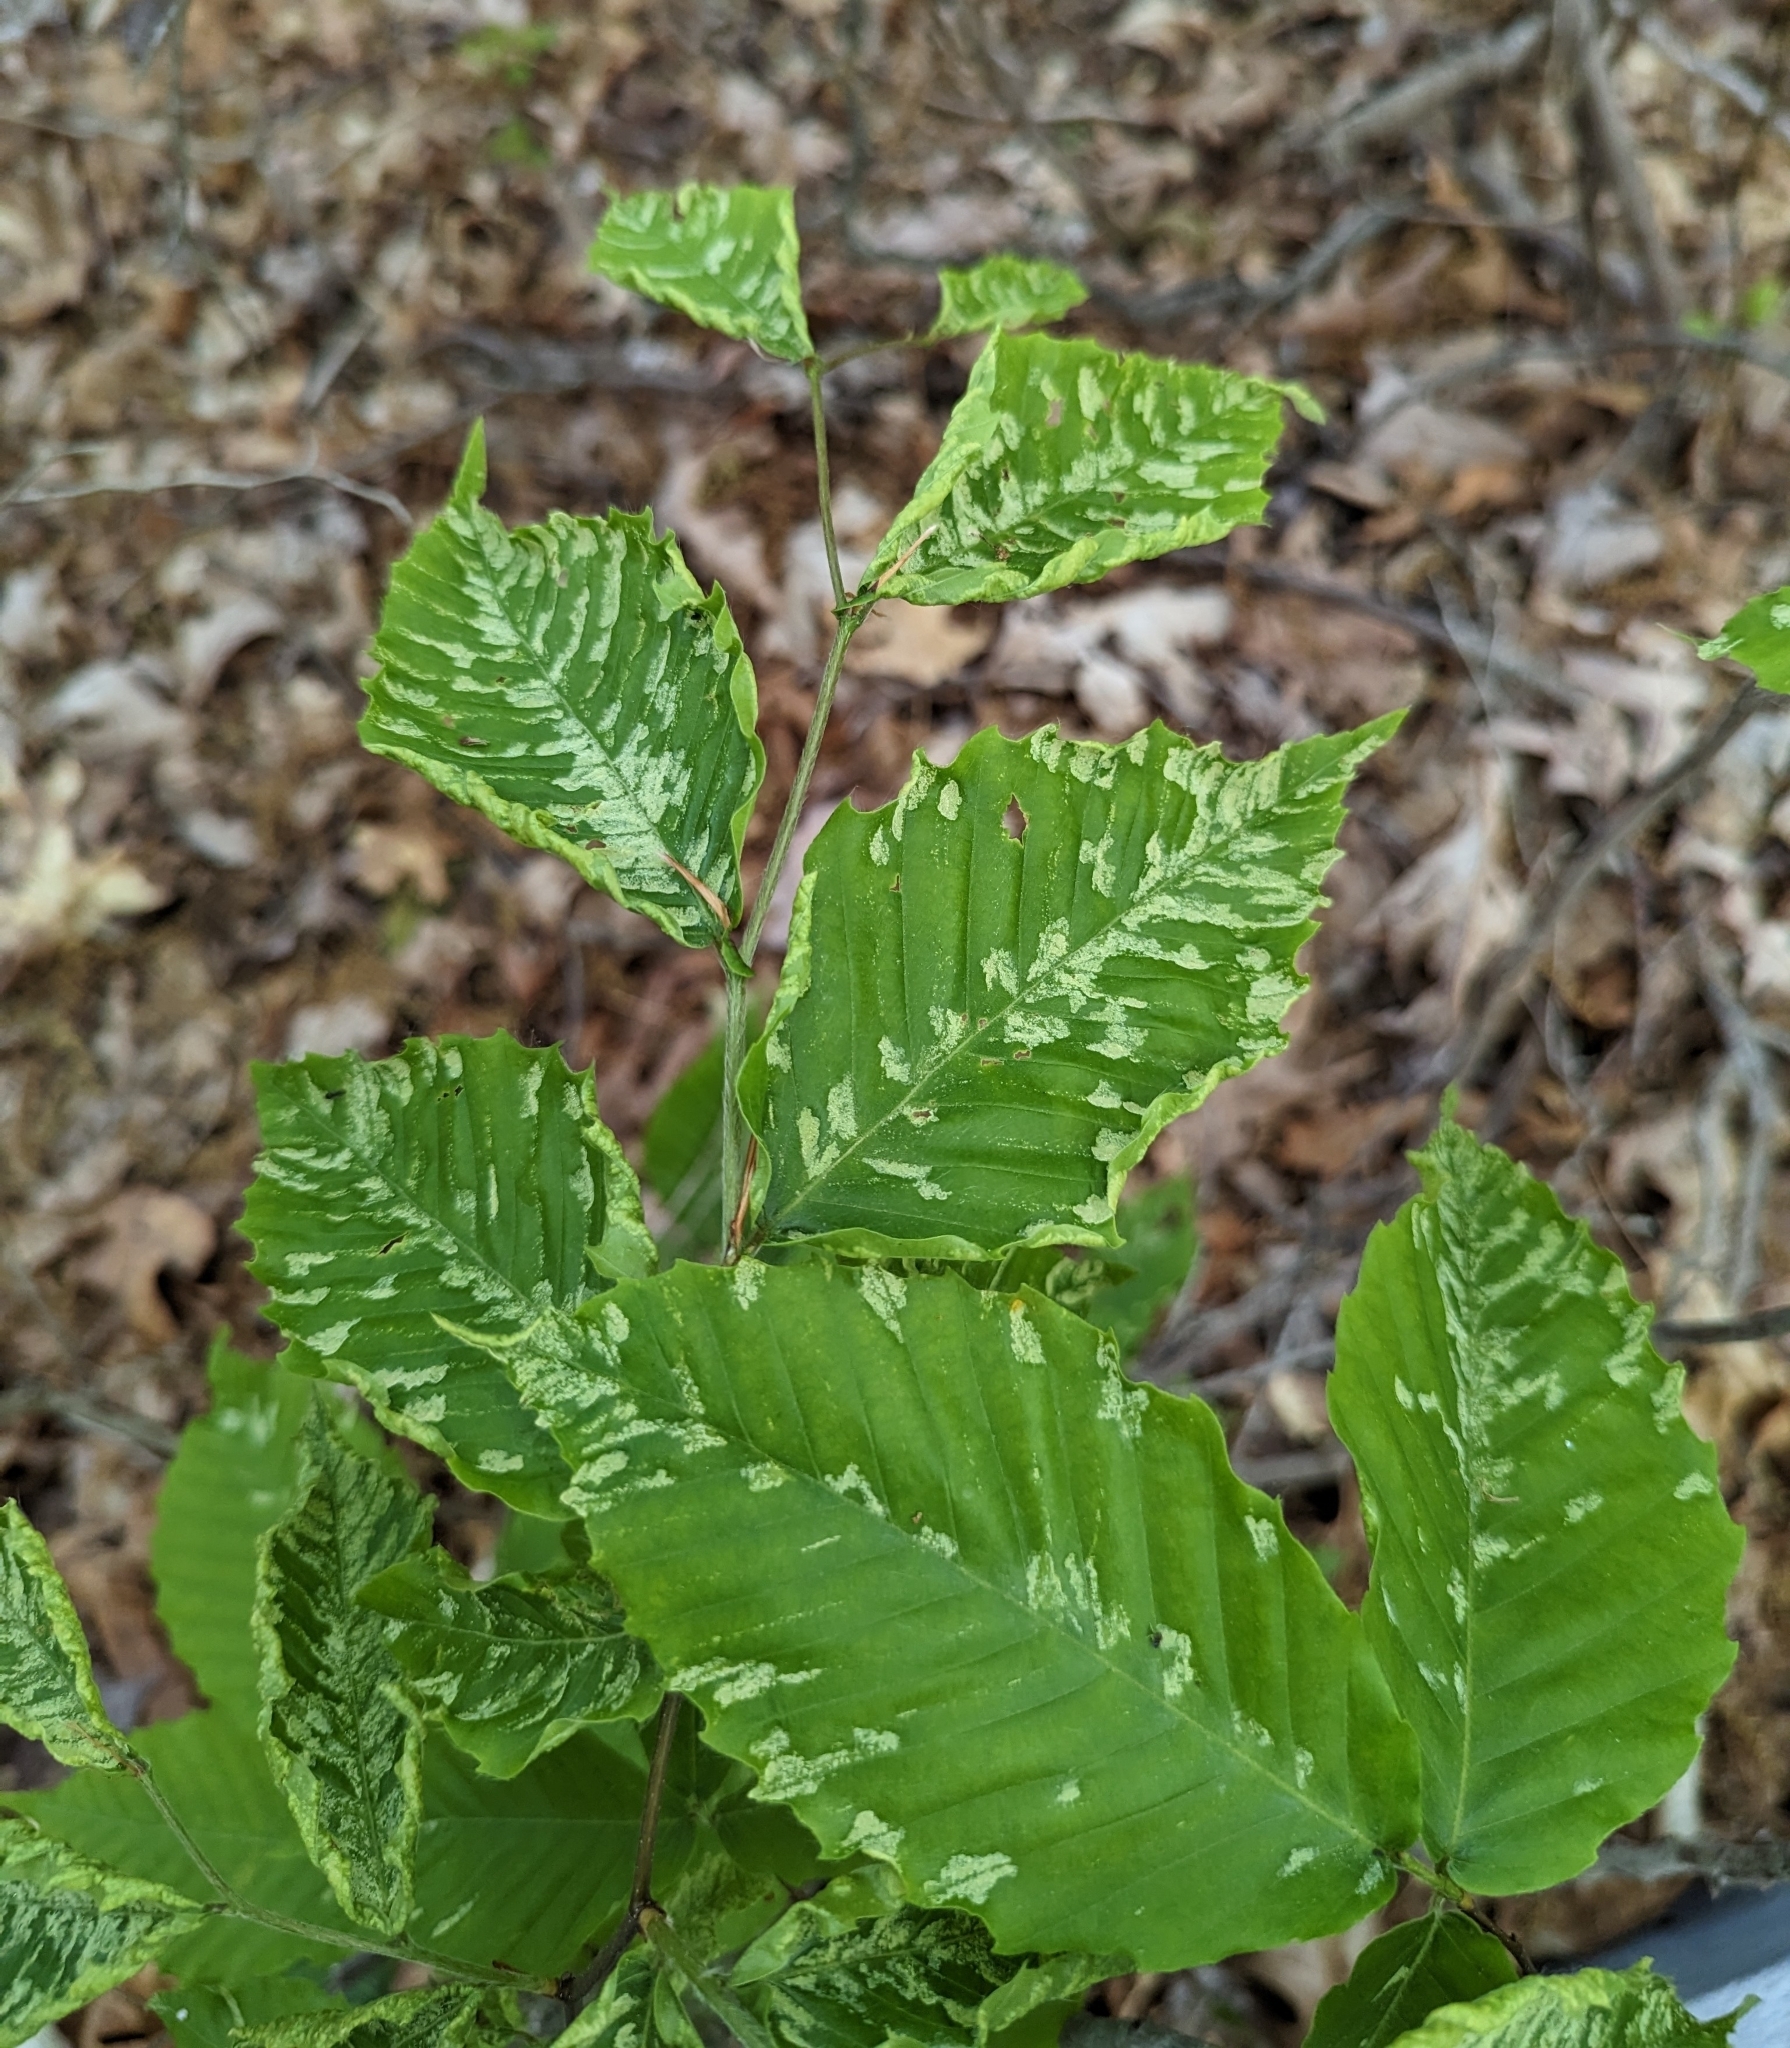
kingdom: Animalia
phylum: Arthropoda
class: Arachnida
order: Trombidiformes
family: Eriophyidae
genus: Acalitus
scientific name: Acalitus
